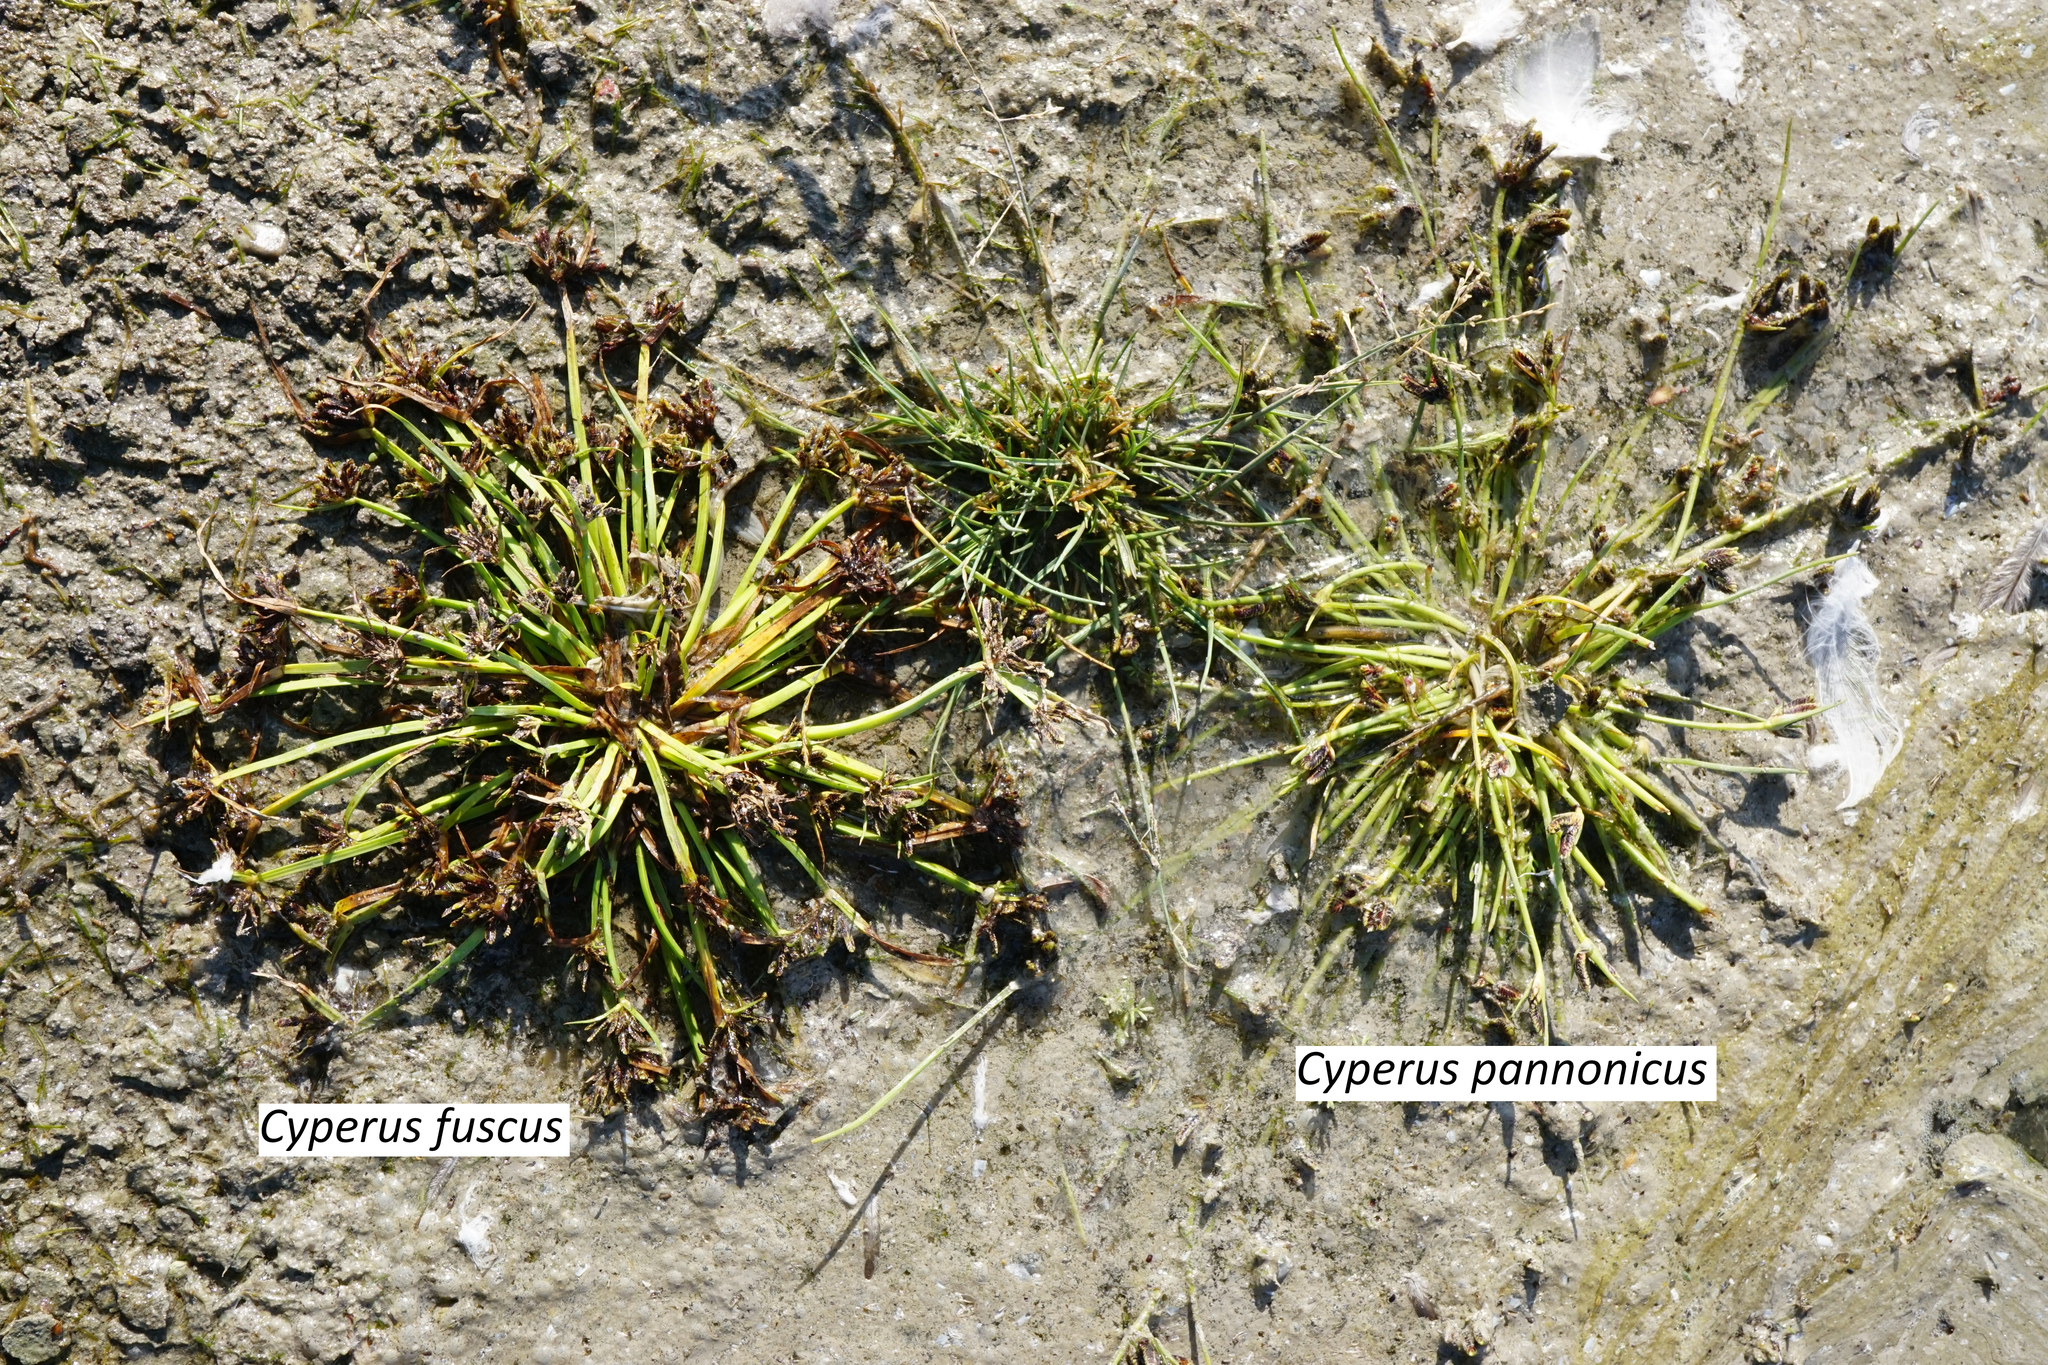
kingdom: Plantae
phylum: Tracheophyta
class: Liliopsida
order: Poales
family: Cyperaceae
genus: Cyperus
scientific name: Cyperus fuscus
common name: Brown galingale
